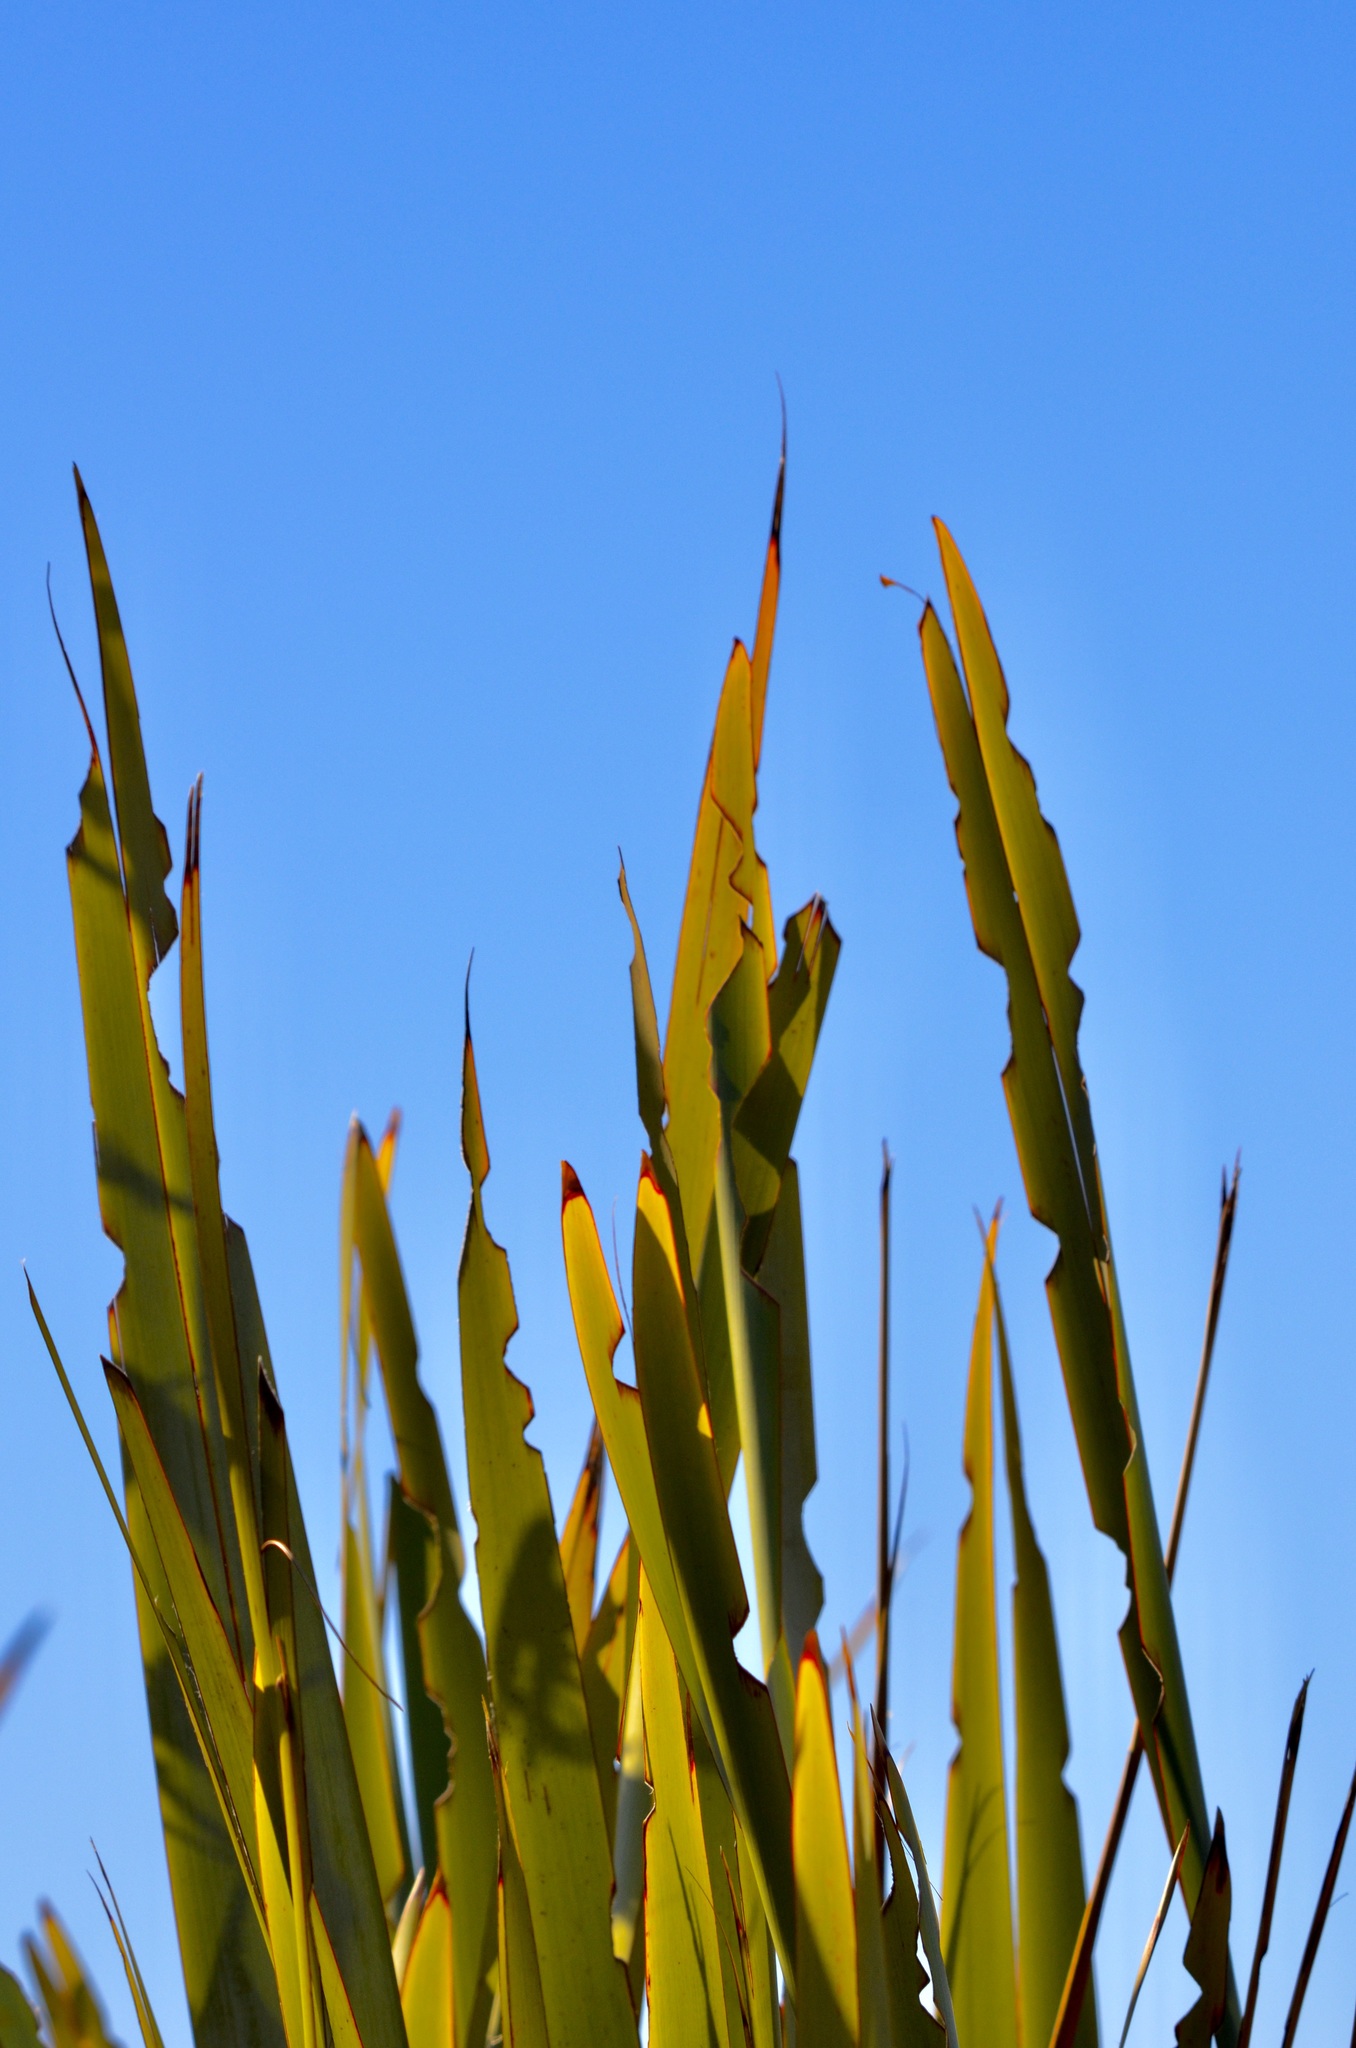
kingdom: Animalia
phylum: Arthropoda
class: Insecta
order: Lepidoptera
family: Noctuidae
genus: Ichneutica
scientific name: Ichneutica
